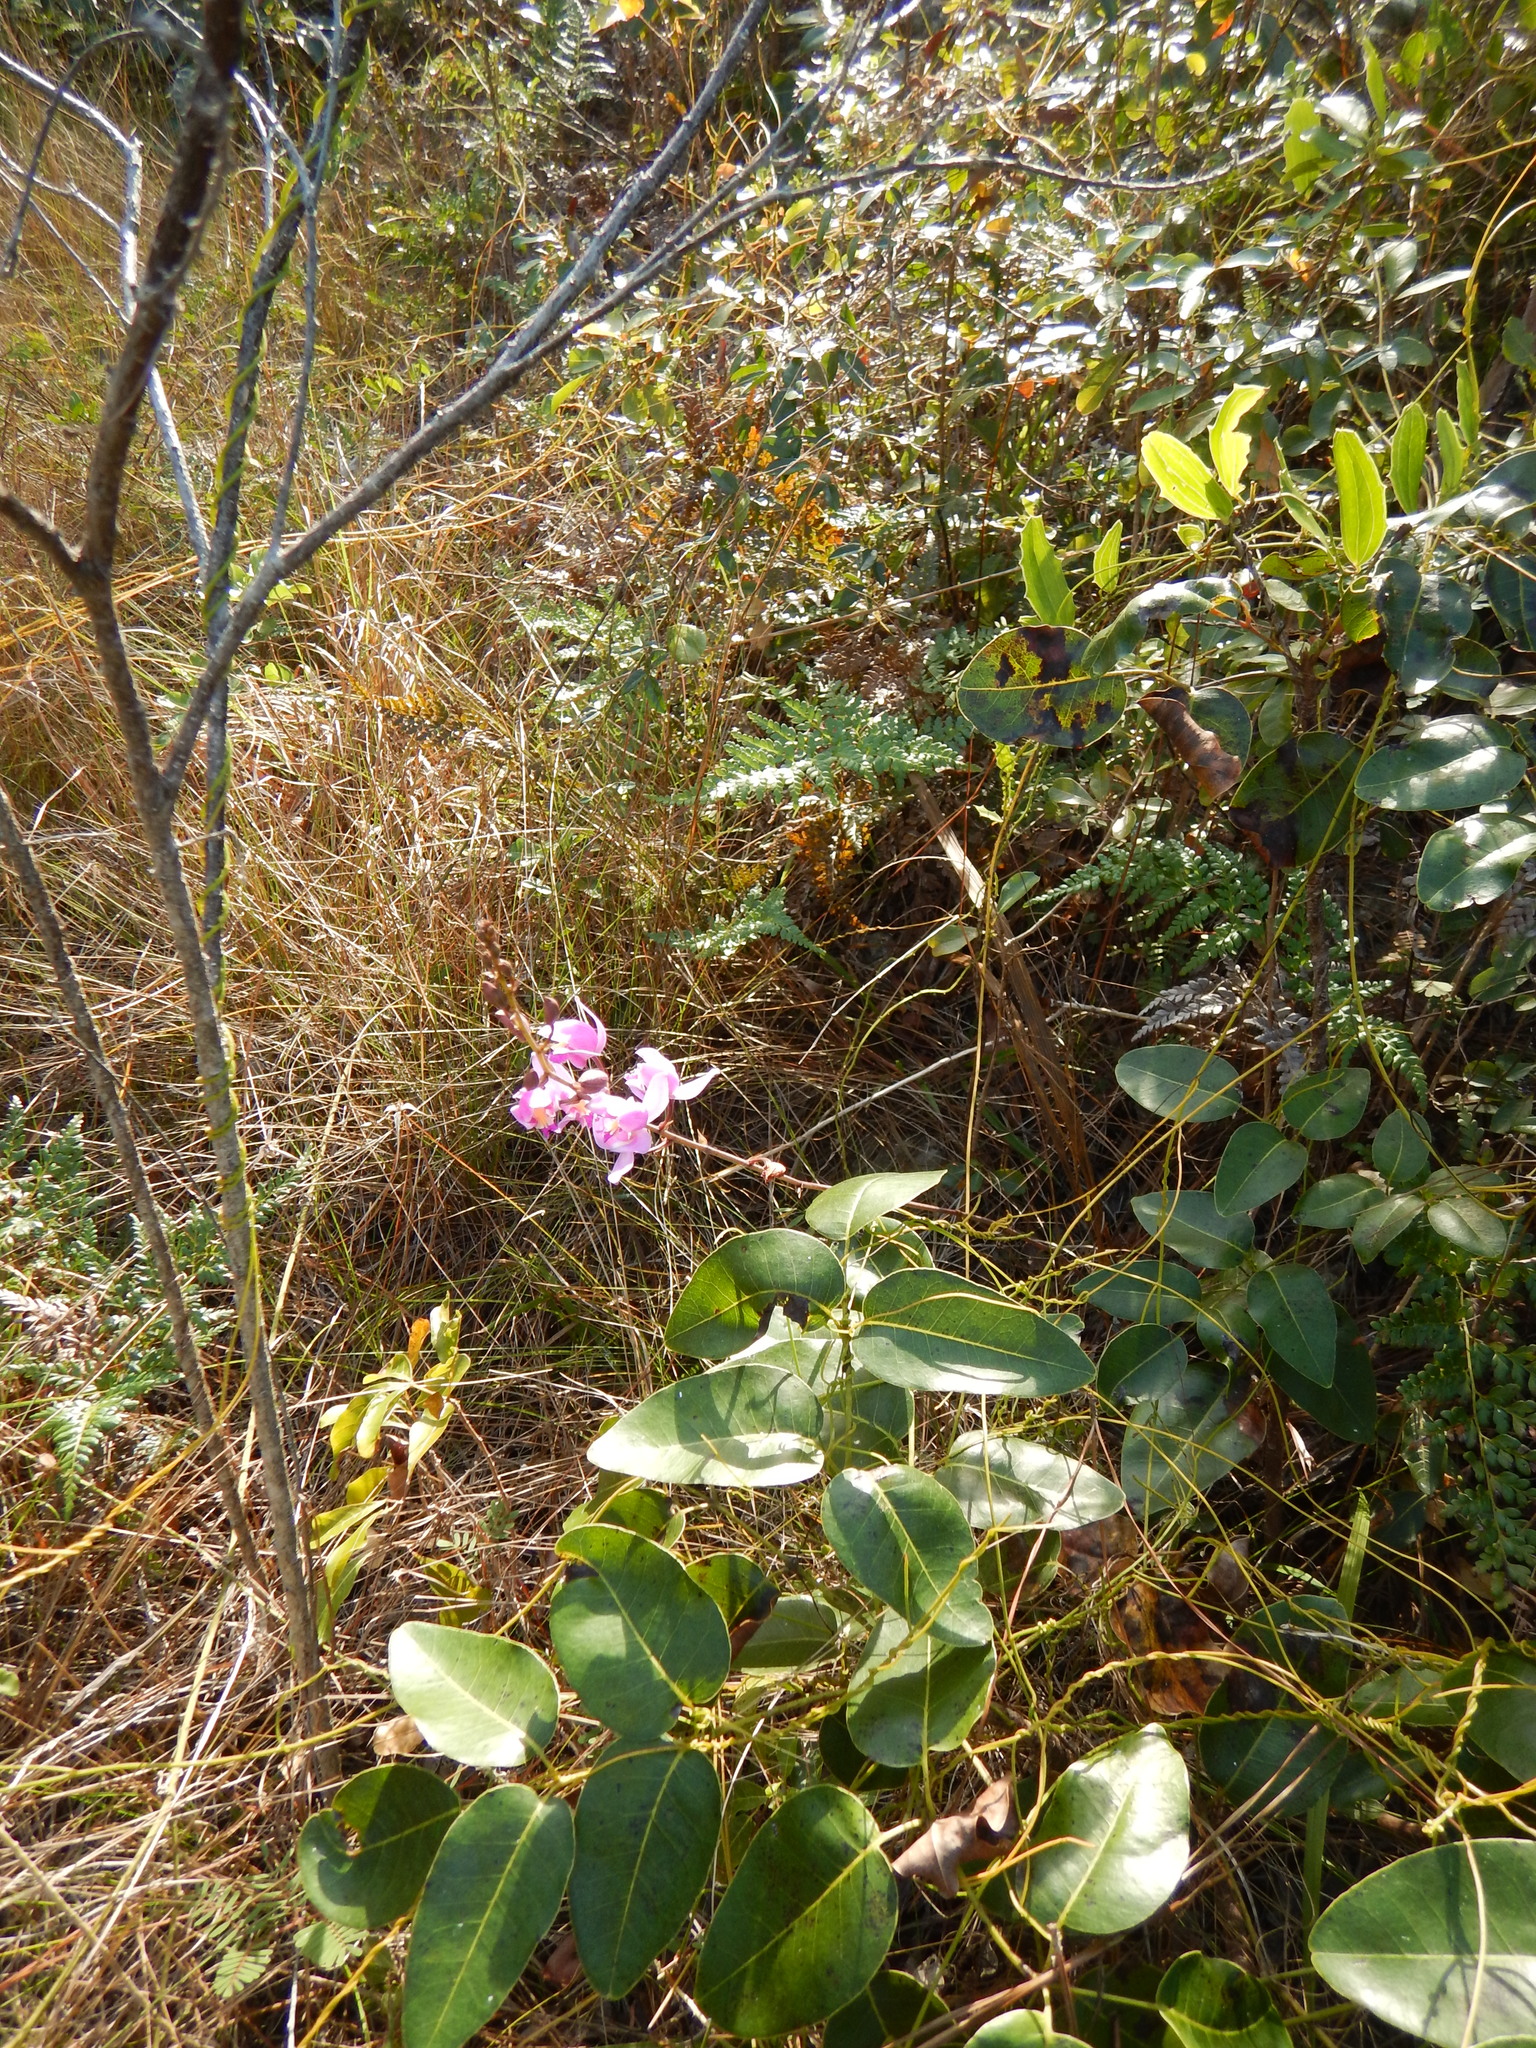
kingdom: Plantae
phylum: Tracheophyta
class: Liliopsida
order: Asparagales
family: Orchidaceae
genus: Bletia
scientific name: Bletia purpurea
